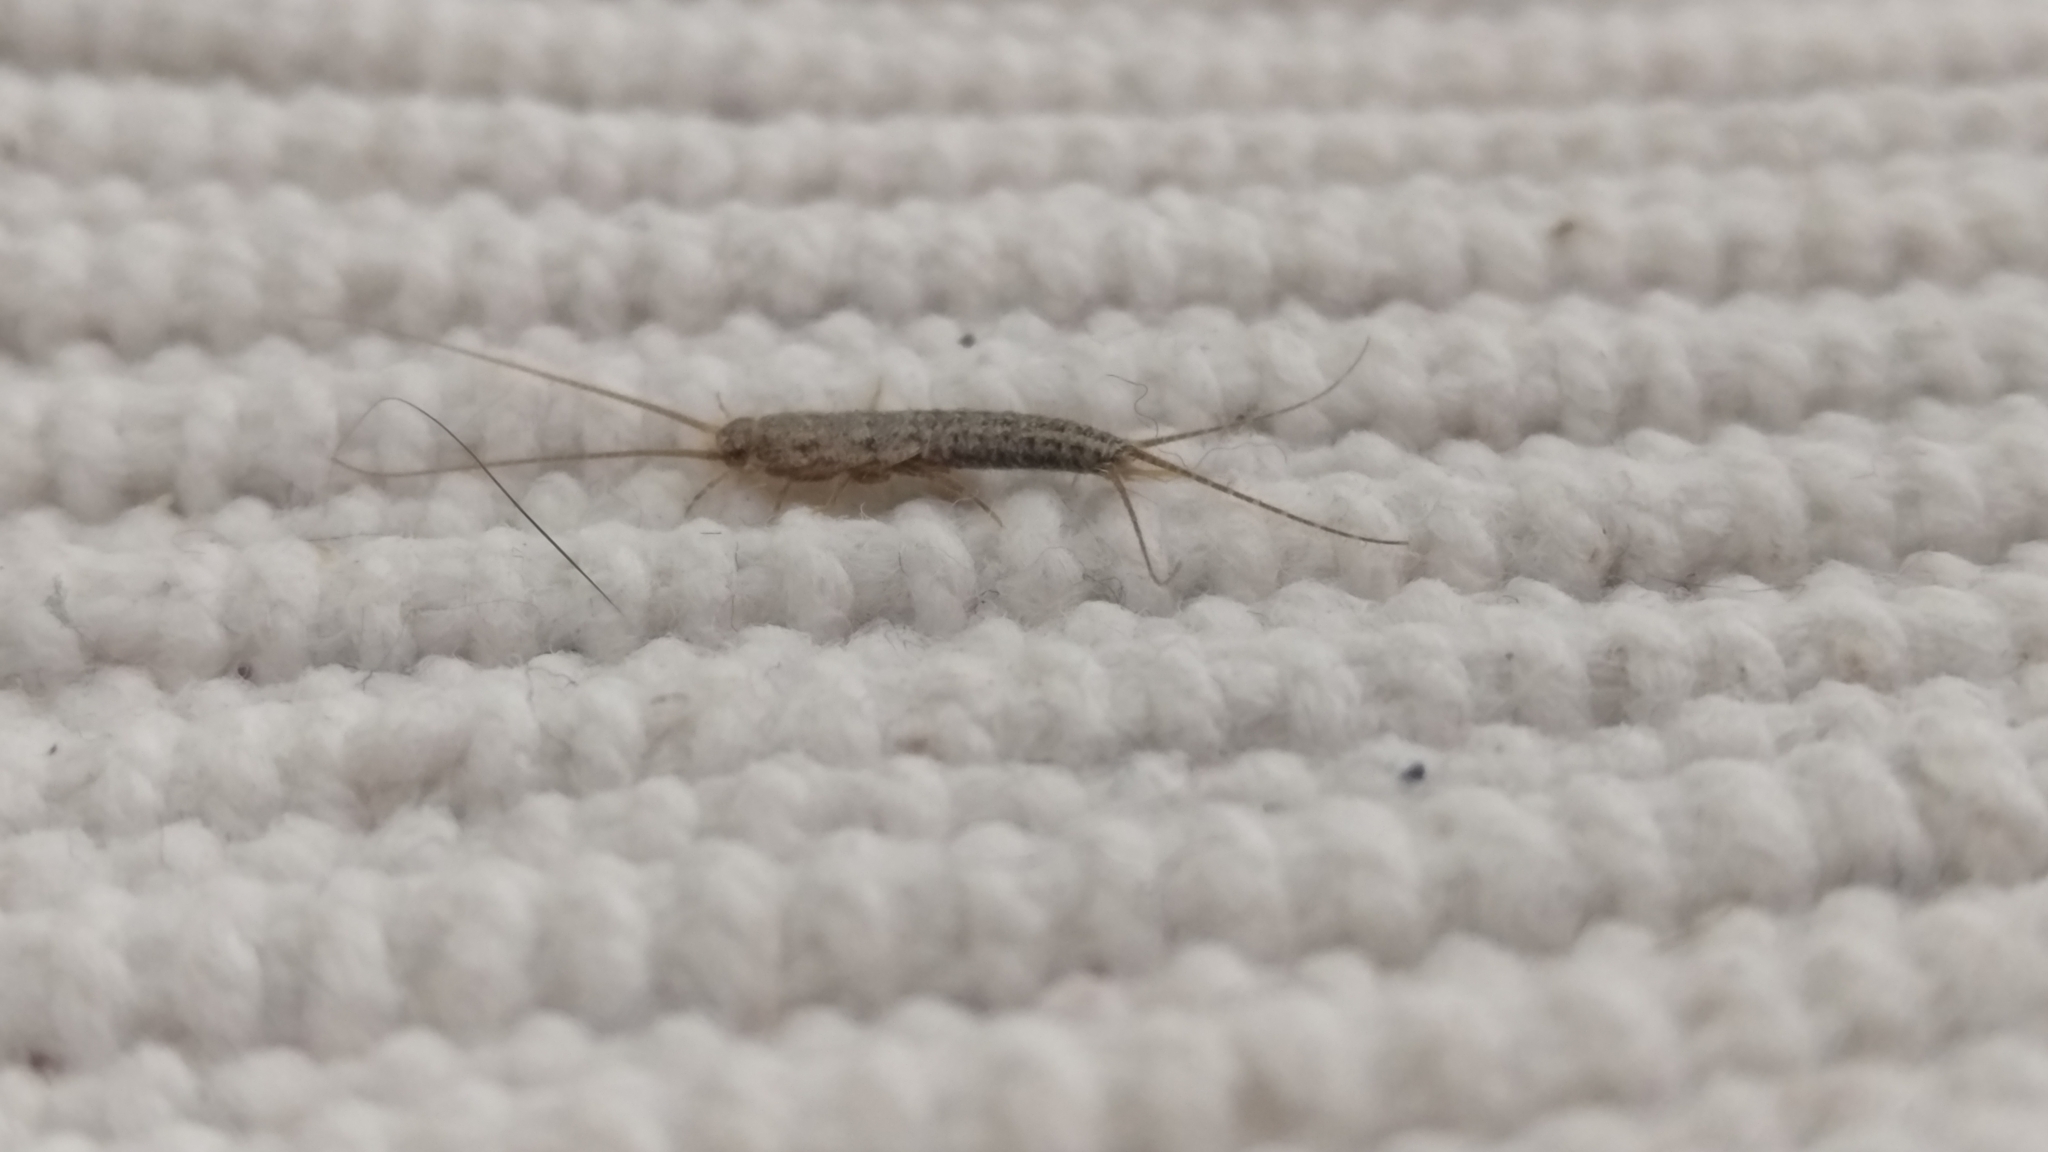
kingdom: Animalia
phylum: Arthropoda
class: Insecta
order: Zygentoma
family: Lepismatidae
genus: Ctenolepisma
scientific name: Ctenolepisma lineata
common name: Four-lined silverfish
